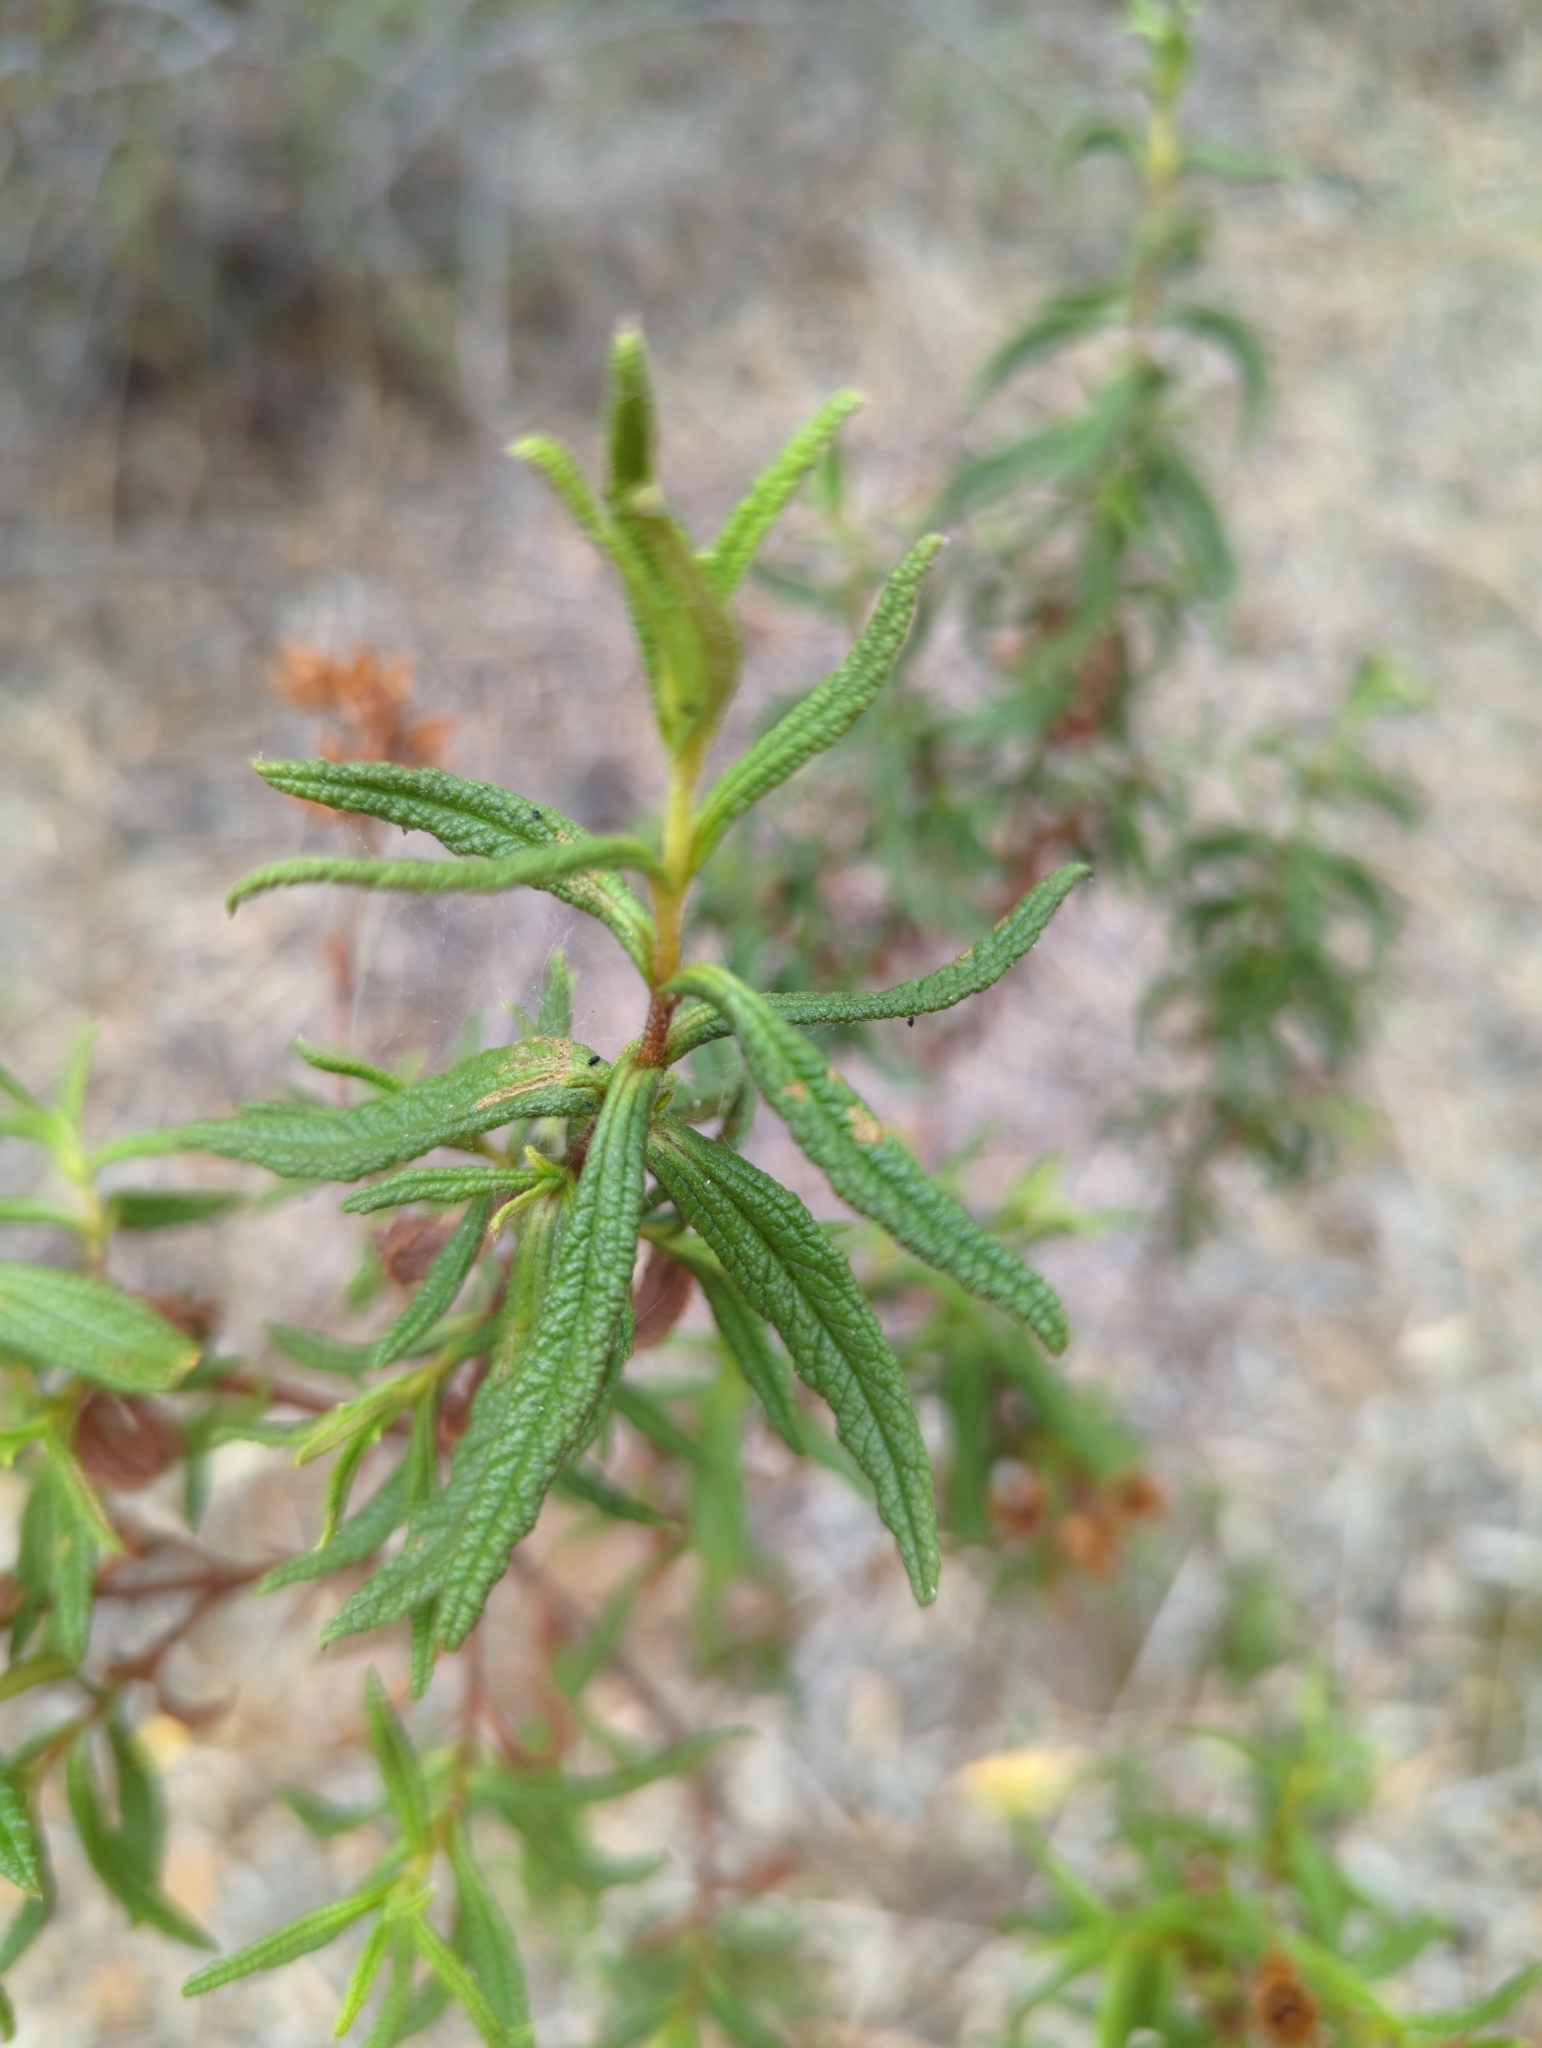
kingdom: Plantae
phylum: Tracheophyta
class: Magnoliopsida
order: Malvales
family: Cistaceae
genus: Cistus
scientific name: Cistus monspeliensis
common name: Montpelier cistus
